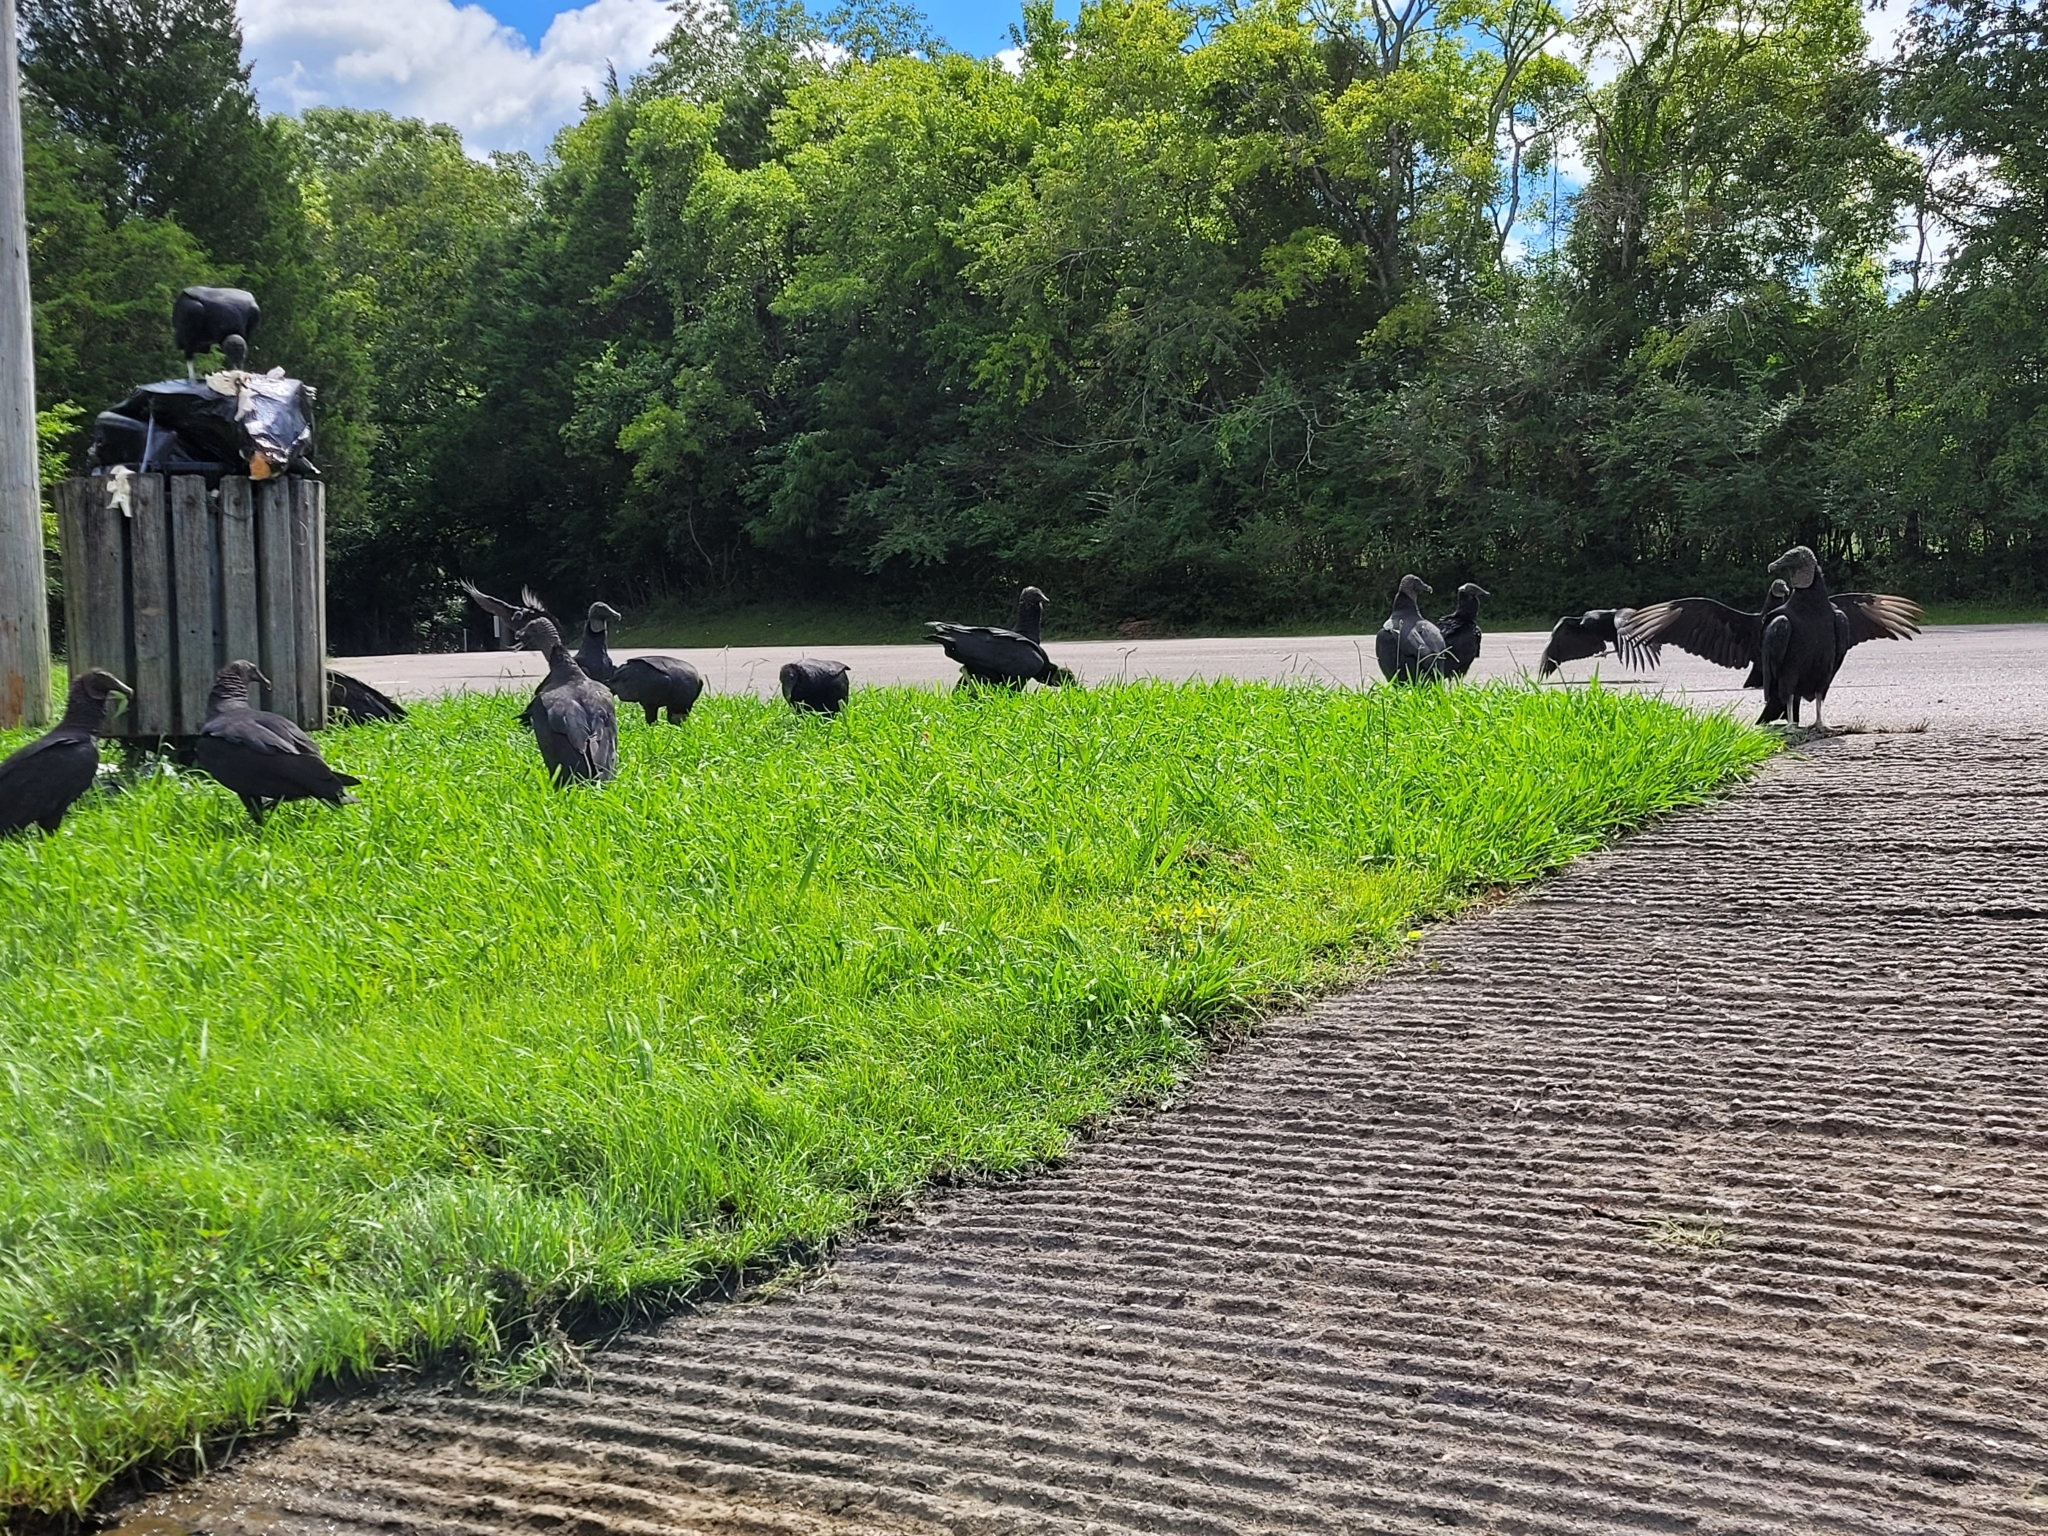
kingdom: Animalia
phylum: Chordata
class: Aves
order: Accipitriformes
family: Cathartidae
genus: Coragyps
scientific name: Coragyps atratus
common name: Black vulture
